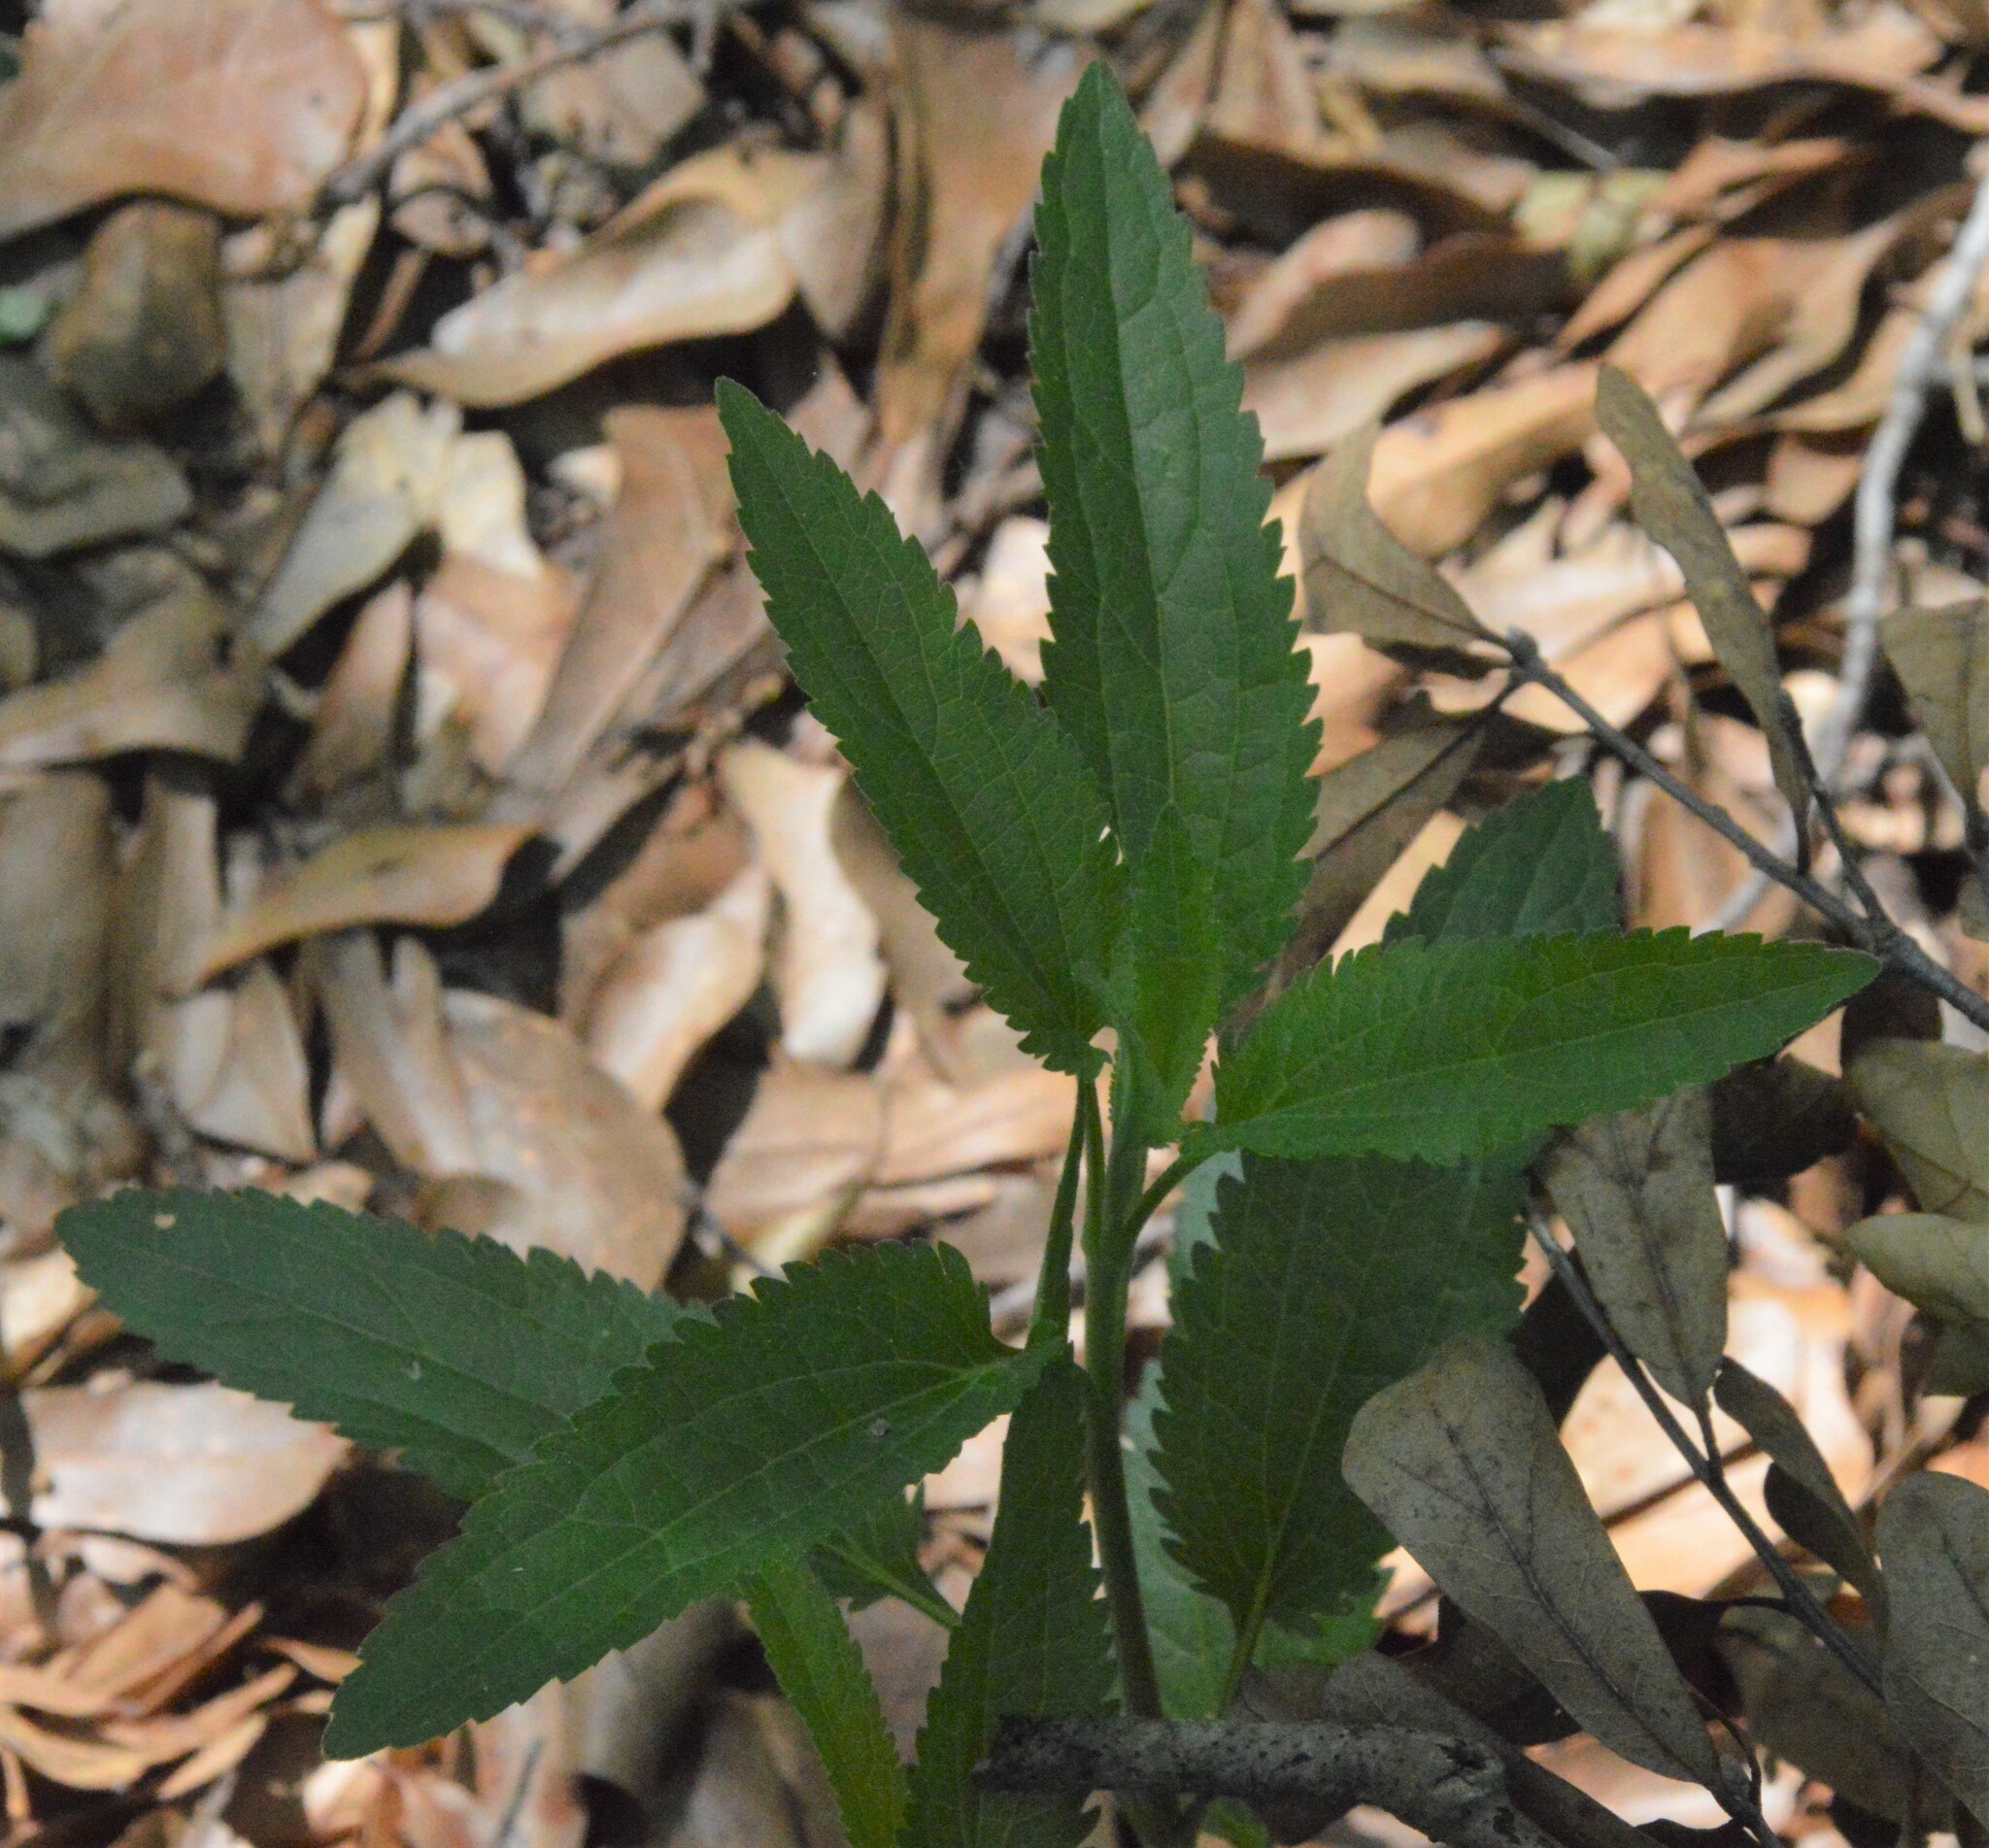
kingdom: Plantae
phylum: Tracheophyta
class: Magnoliopsida
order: Asterales
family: Asteraceae
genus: Eupatorium
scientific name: Eupatorium serotinum
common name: Late boneset
